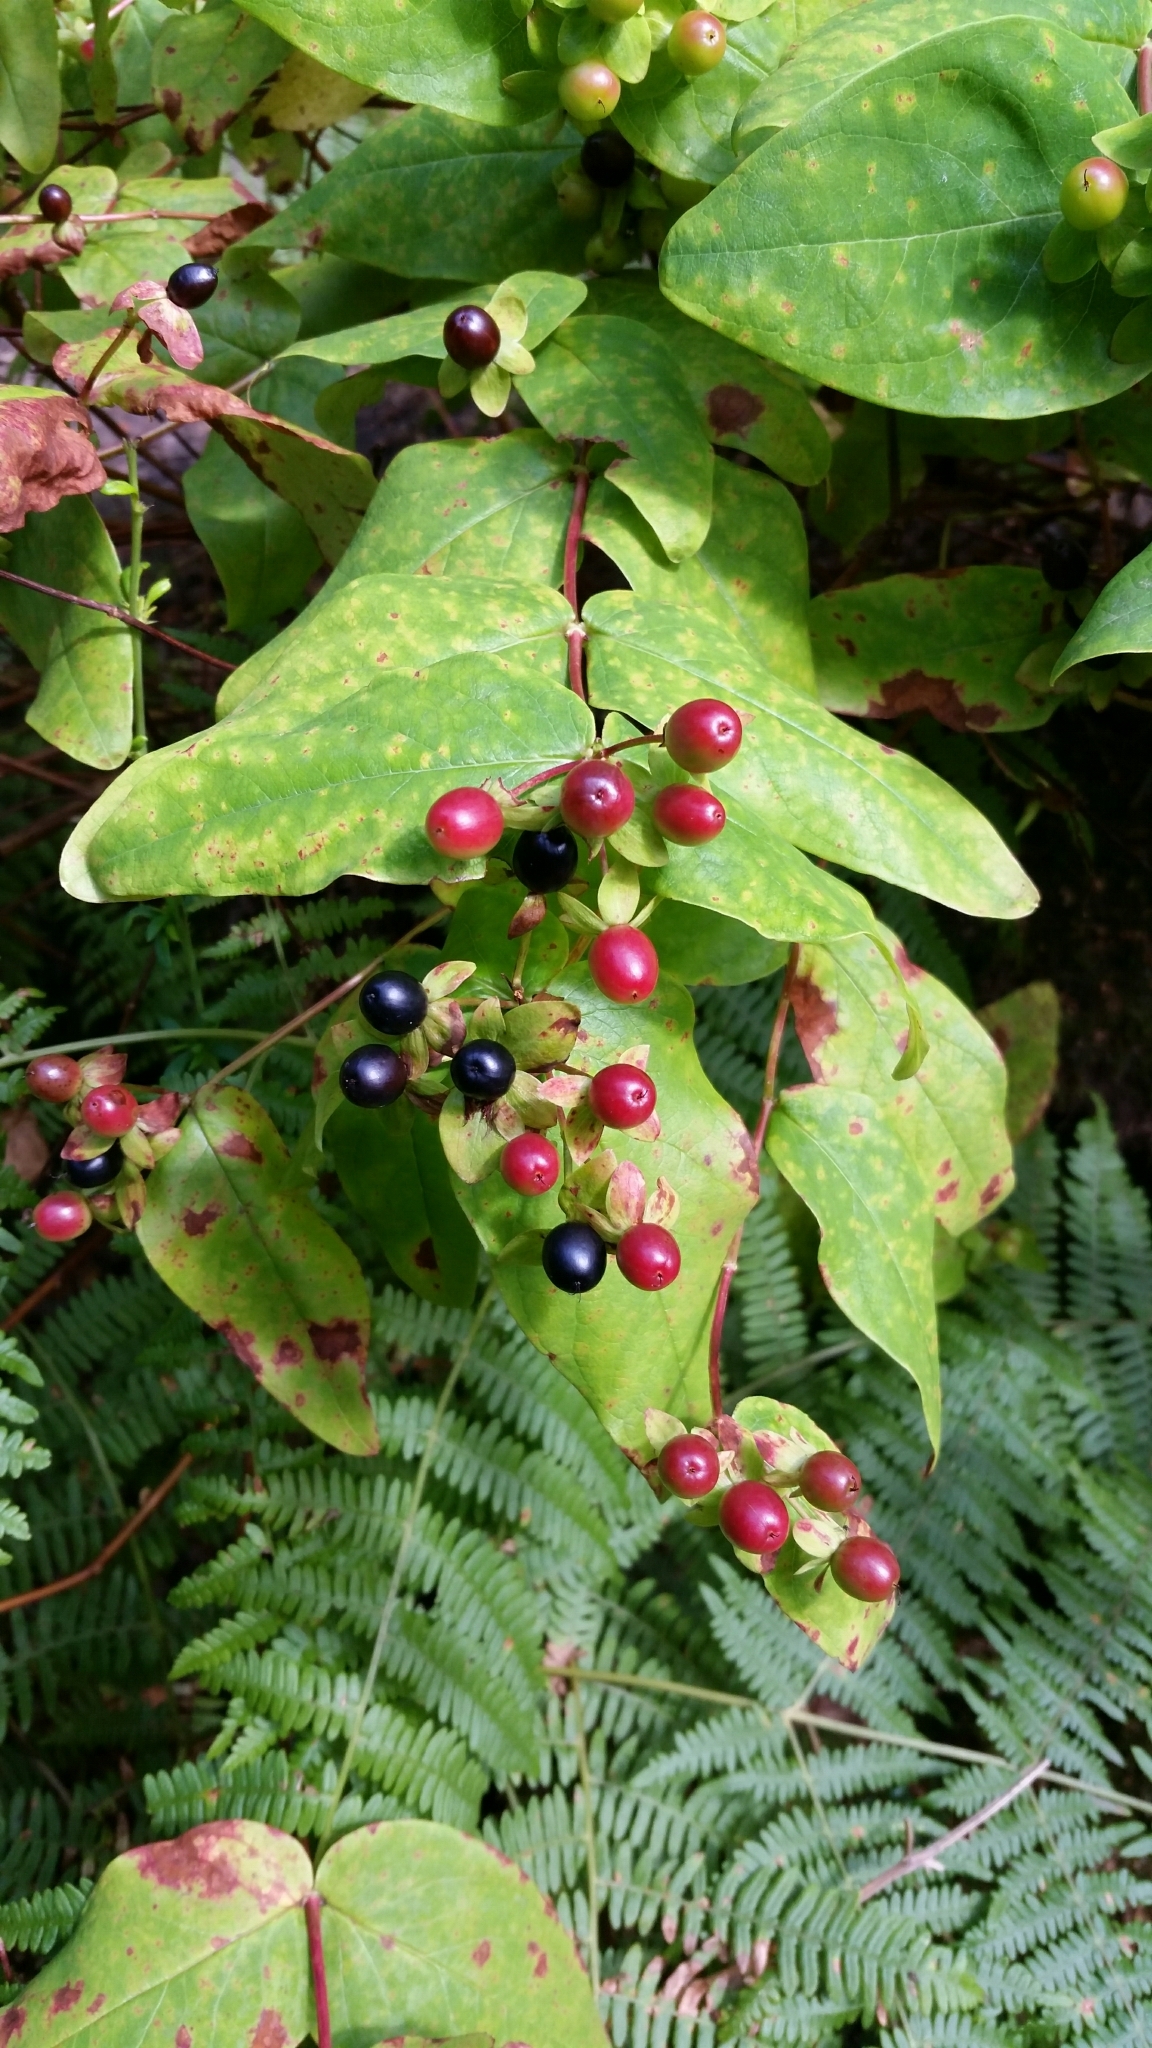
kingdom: Plantae
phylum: Tracheophyta
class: Magnoliopsida
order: Malpighiales
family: Hypericaceae
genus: Hypericum
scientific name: Hypericum androsaemum
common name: Sweet-amber
